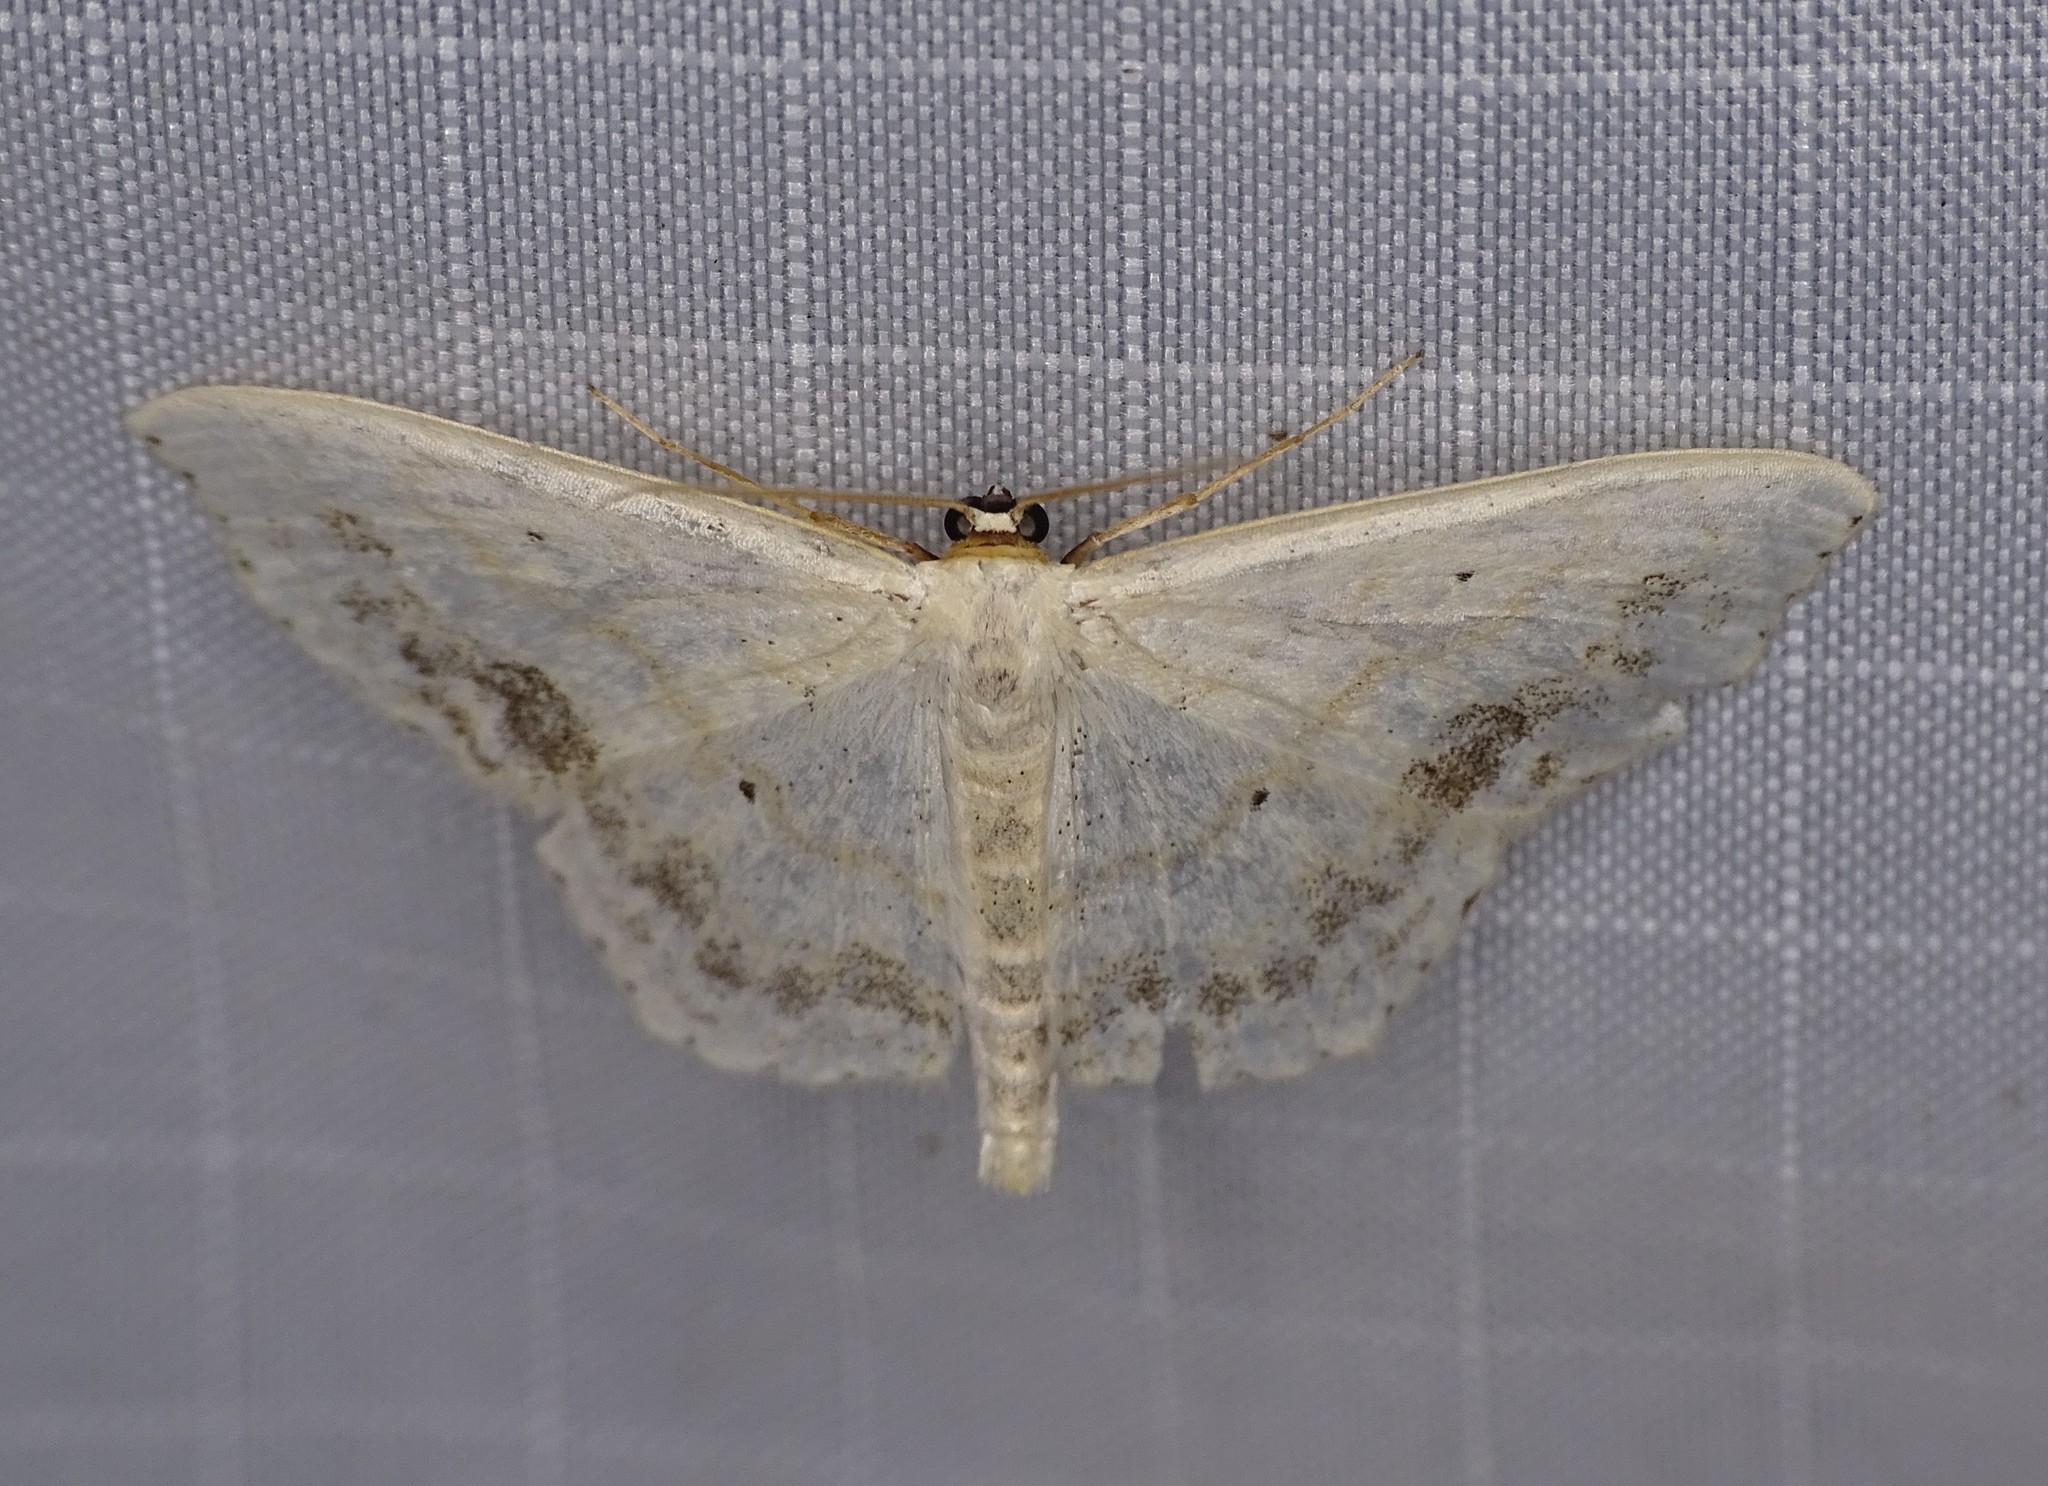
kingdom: Animalia
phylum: Arthropoda
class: Insecta
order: Lepidoptera
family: Geometridae
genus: Scopula
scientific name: Scopula limboundata
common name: Large lace border
